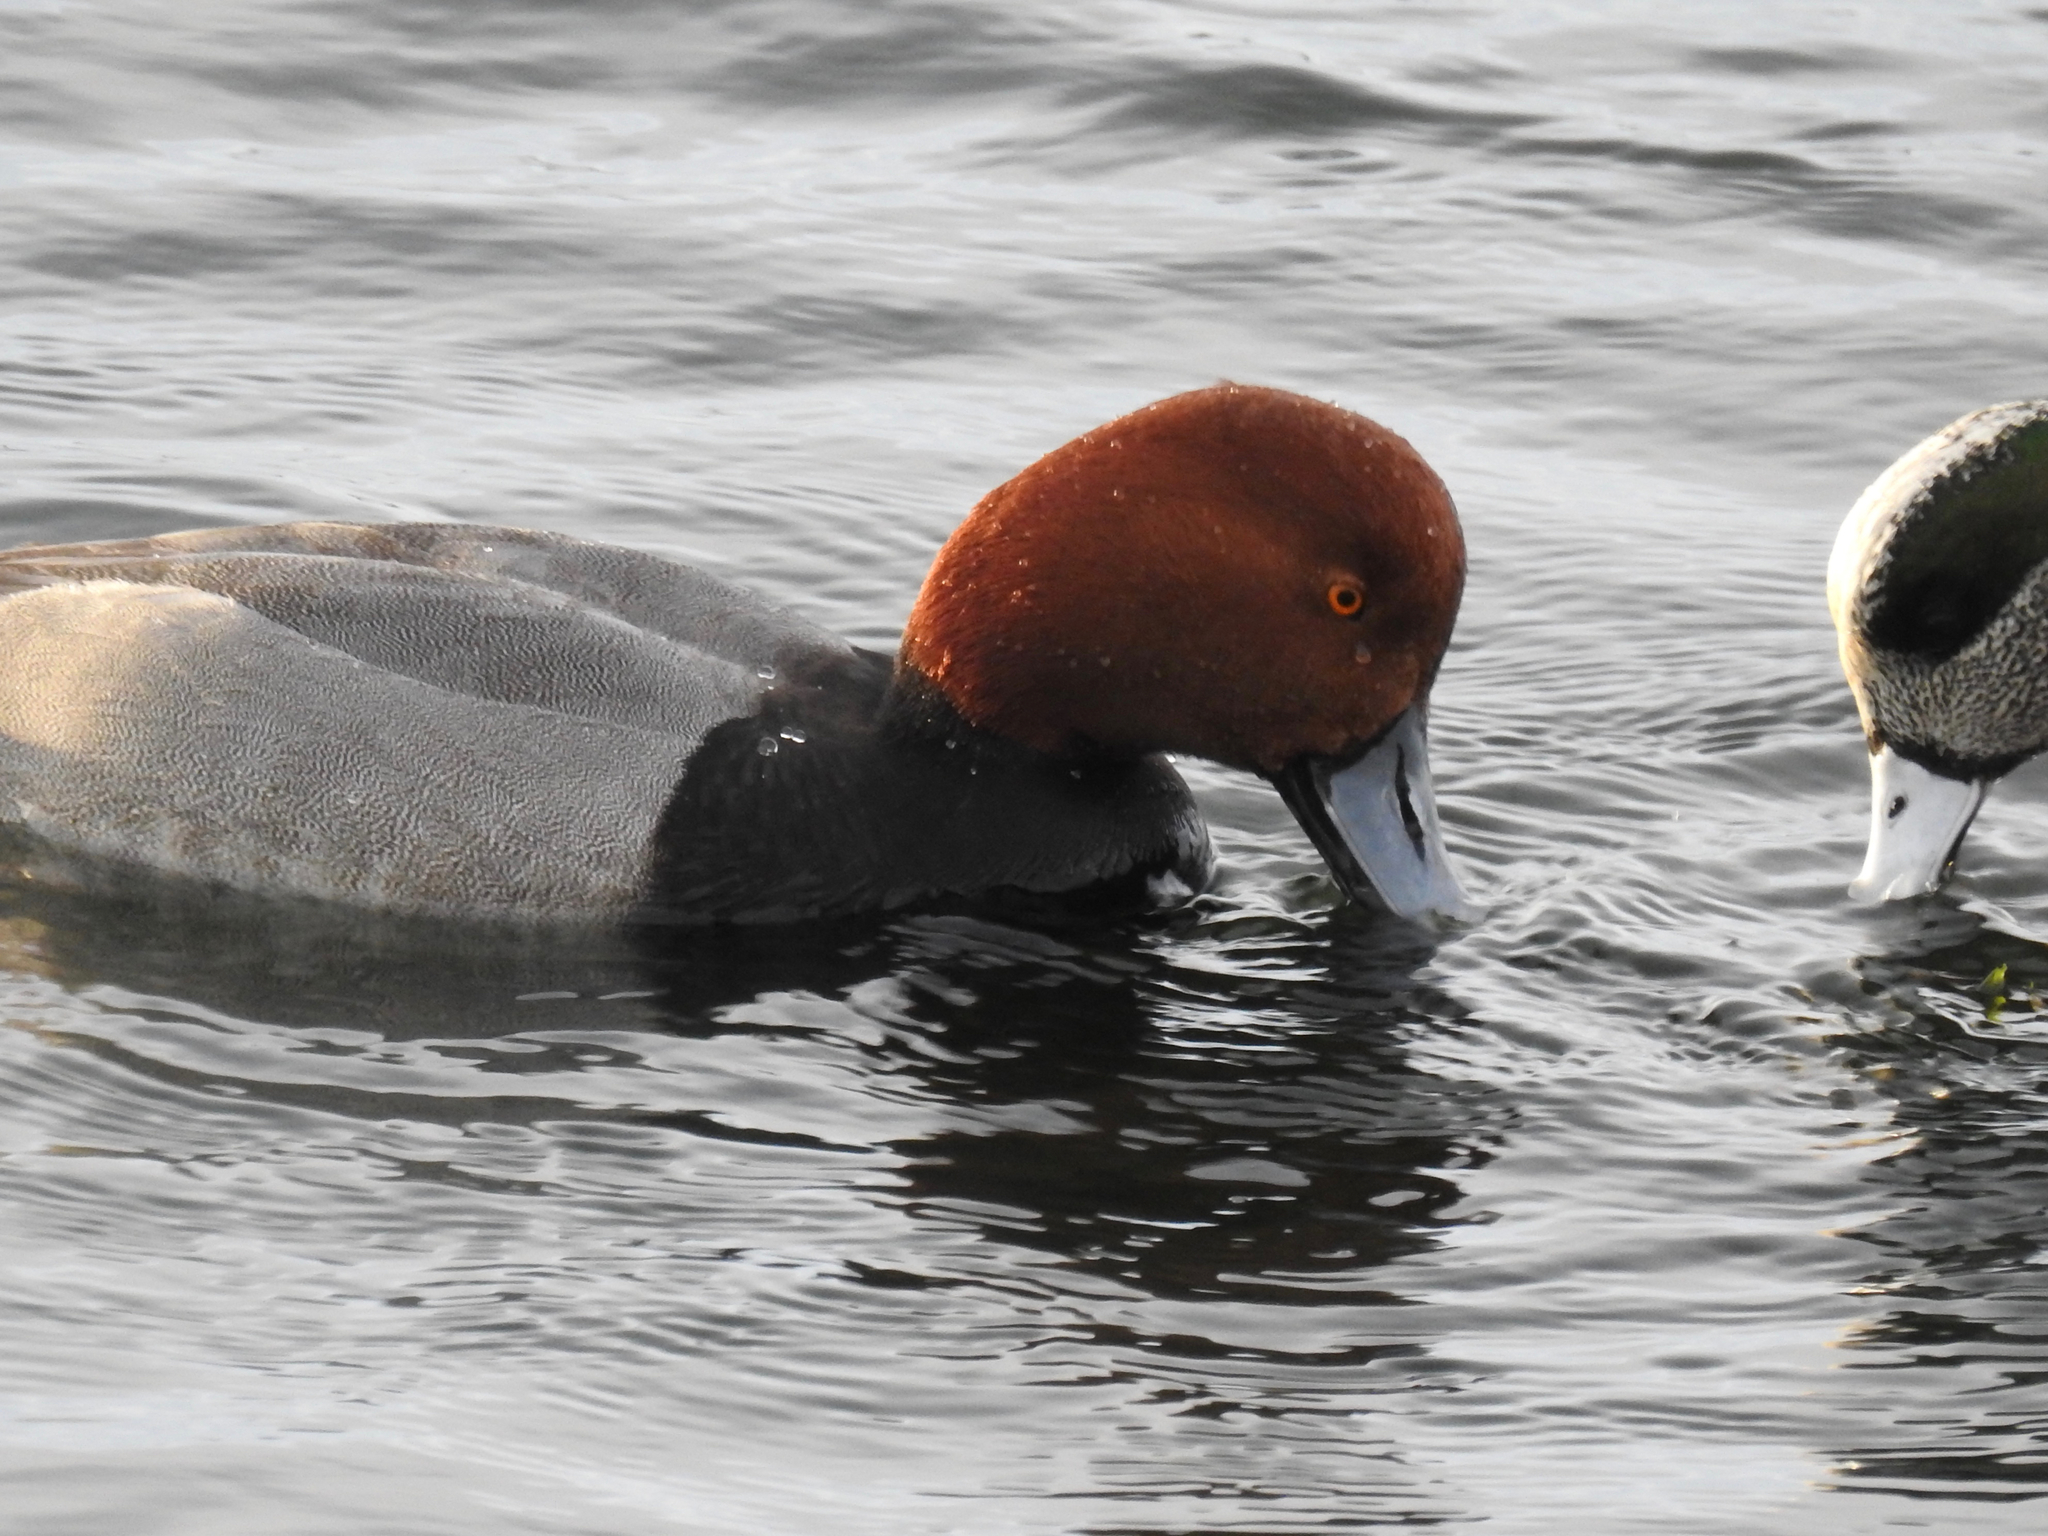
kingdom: Animalia
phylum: Chordata
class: Aves
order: Anseriformes
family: Anatidae
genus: Aythya
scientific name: Aythya americana
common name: Redhead
